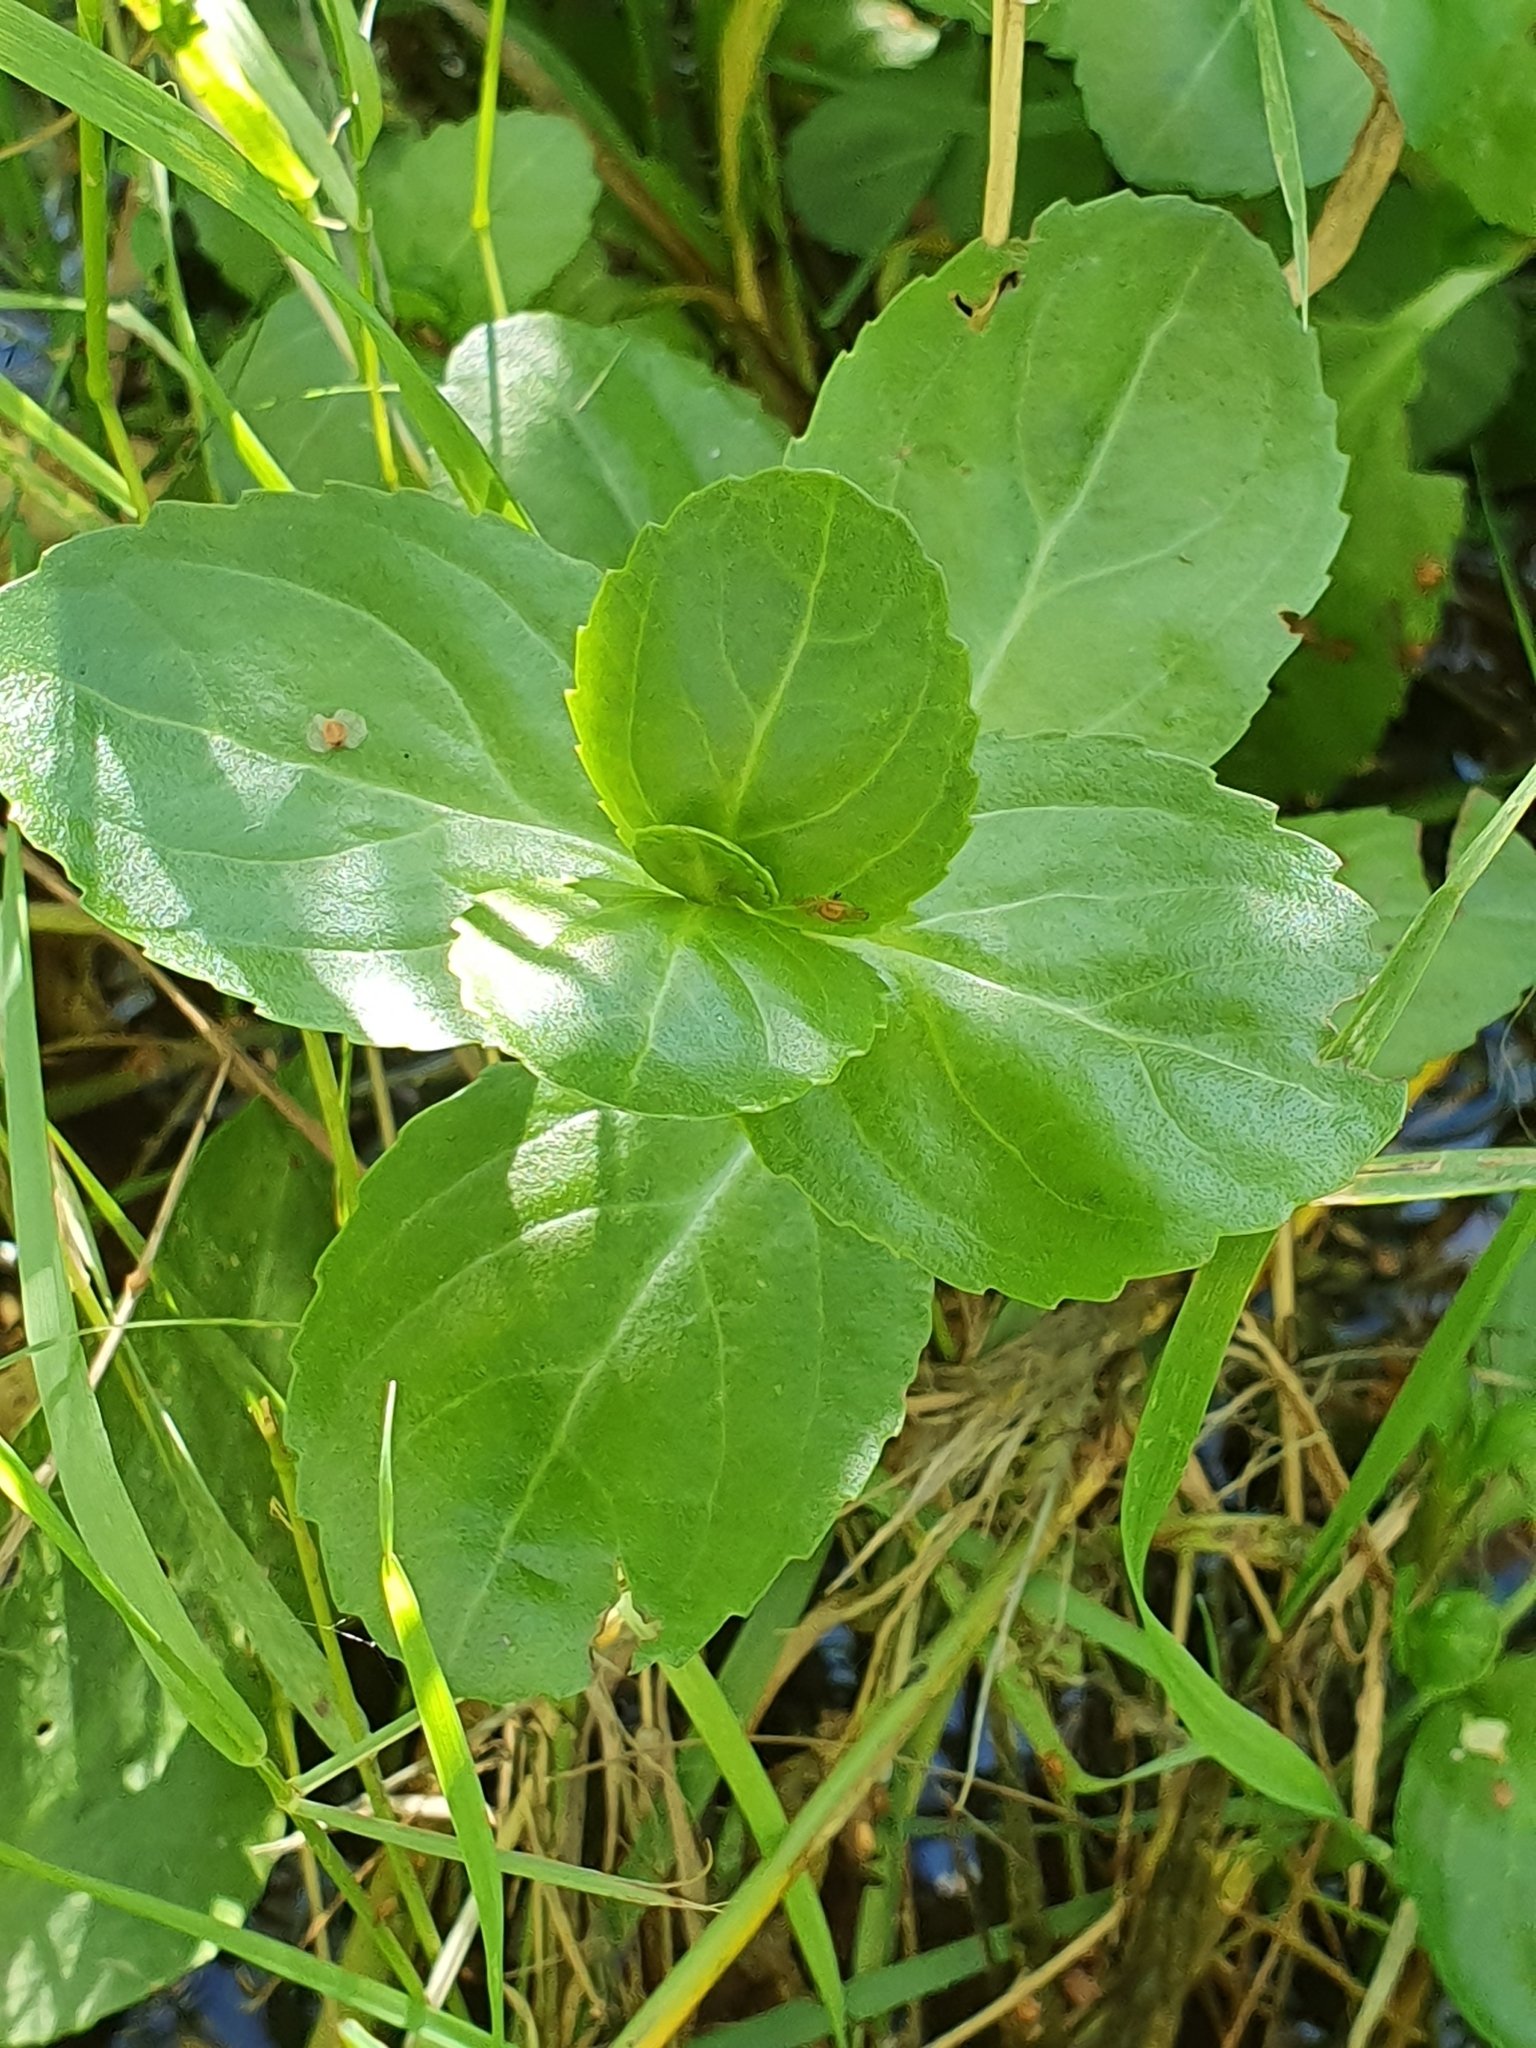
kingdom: Plantae
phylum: Tracheophyta
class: Magnoliopsida
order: Lamiales
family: Plantaginaceae
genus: Veronica
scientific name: Veronica beccabunga
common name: Brooklime
